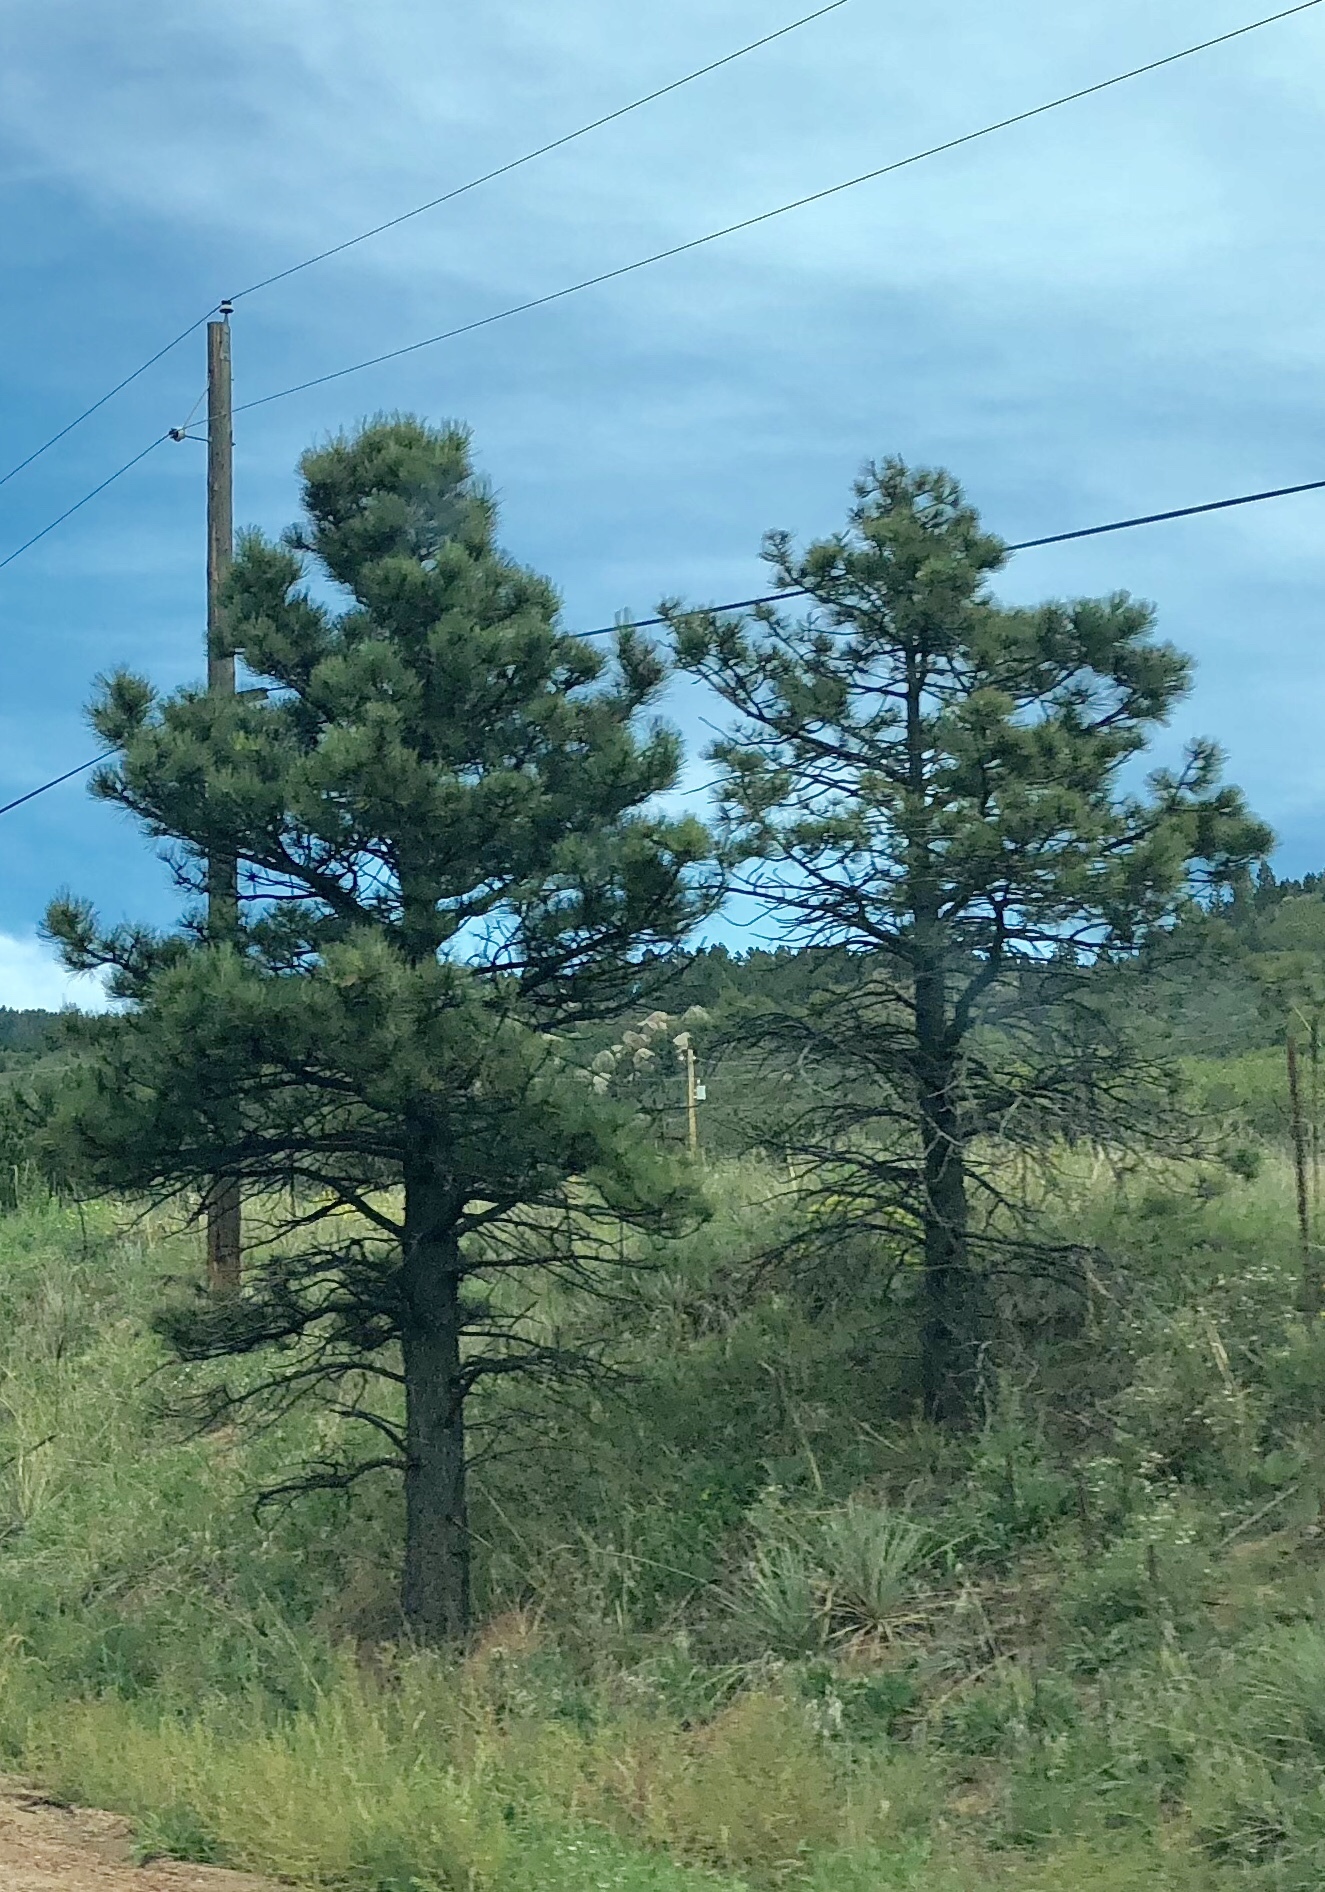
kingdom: Plantae
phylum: Tracheophyta
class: Pinopsida
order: Pinales
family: Pinaceae
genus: Pinus
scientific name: Pinus ponderosa
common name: Western yellow-pine
